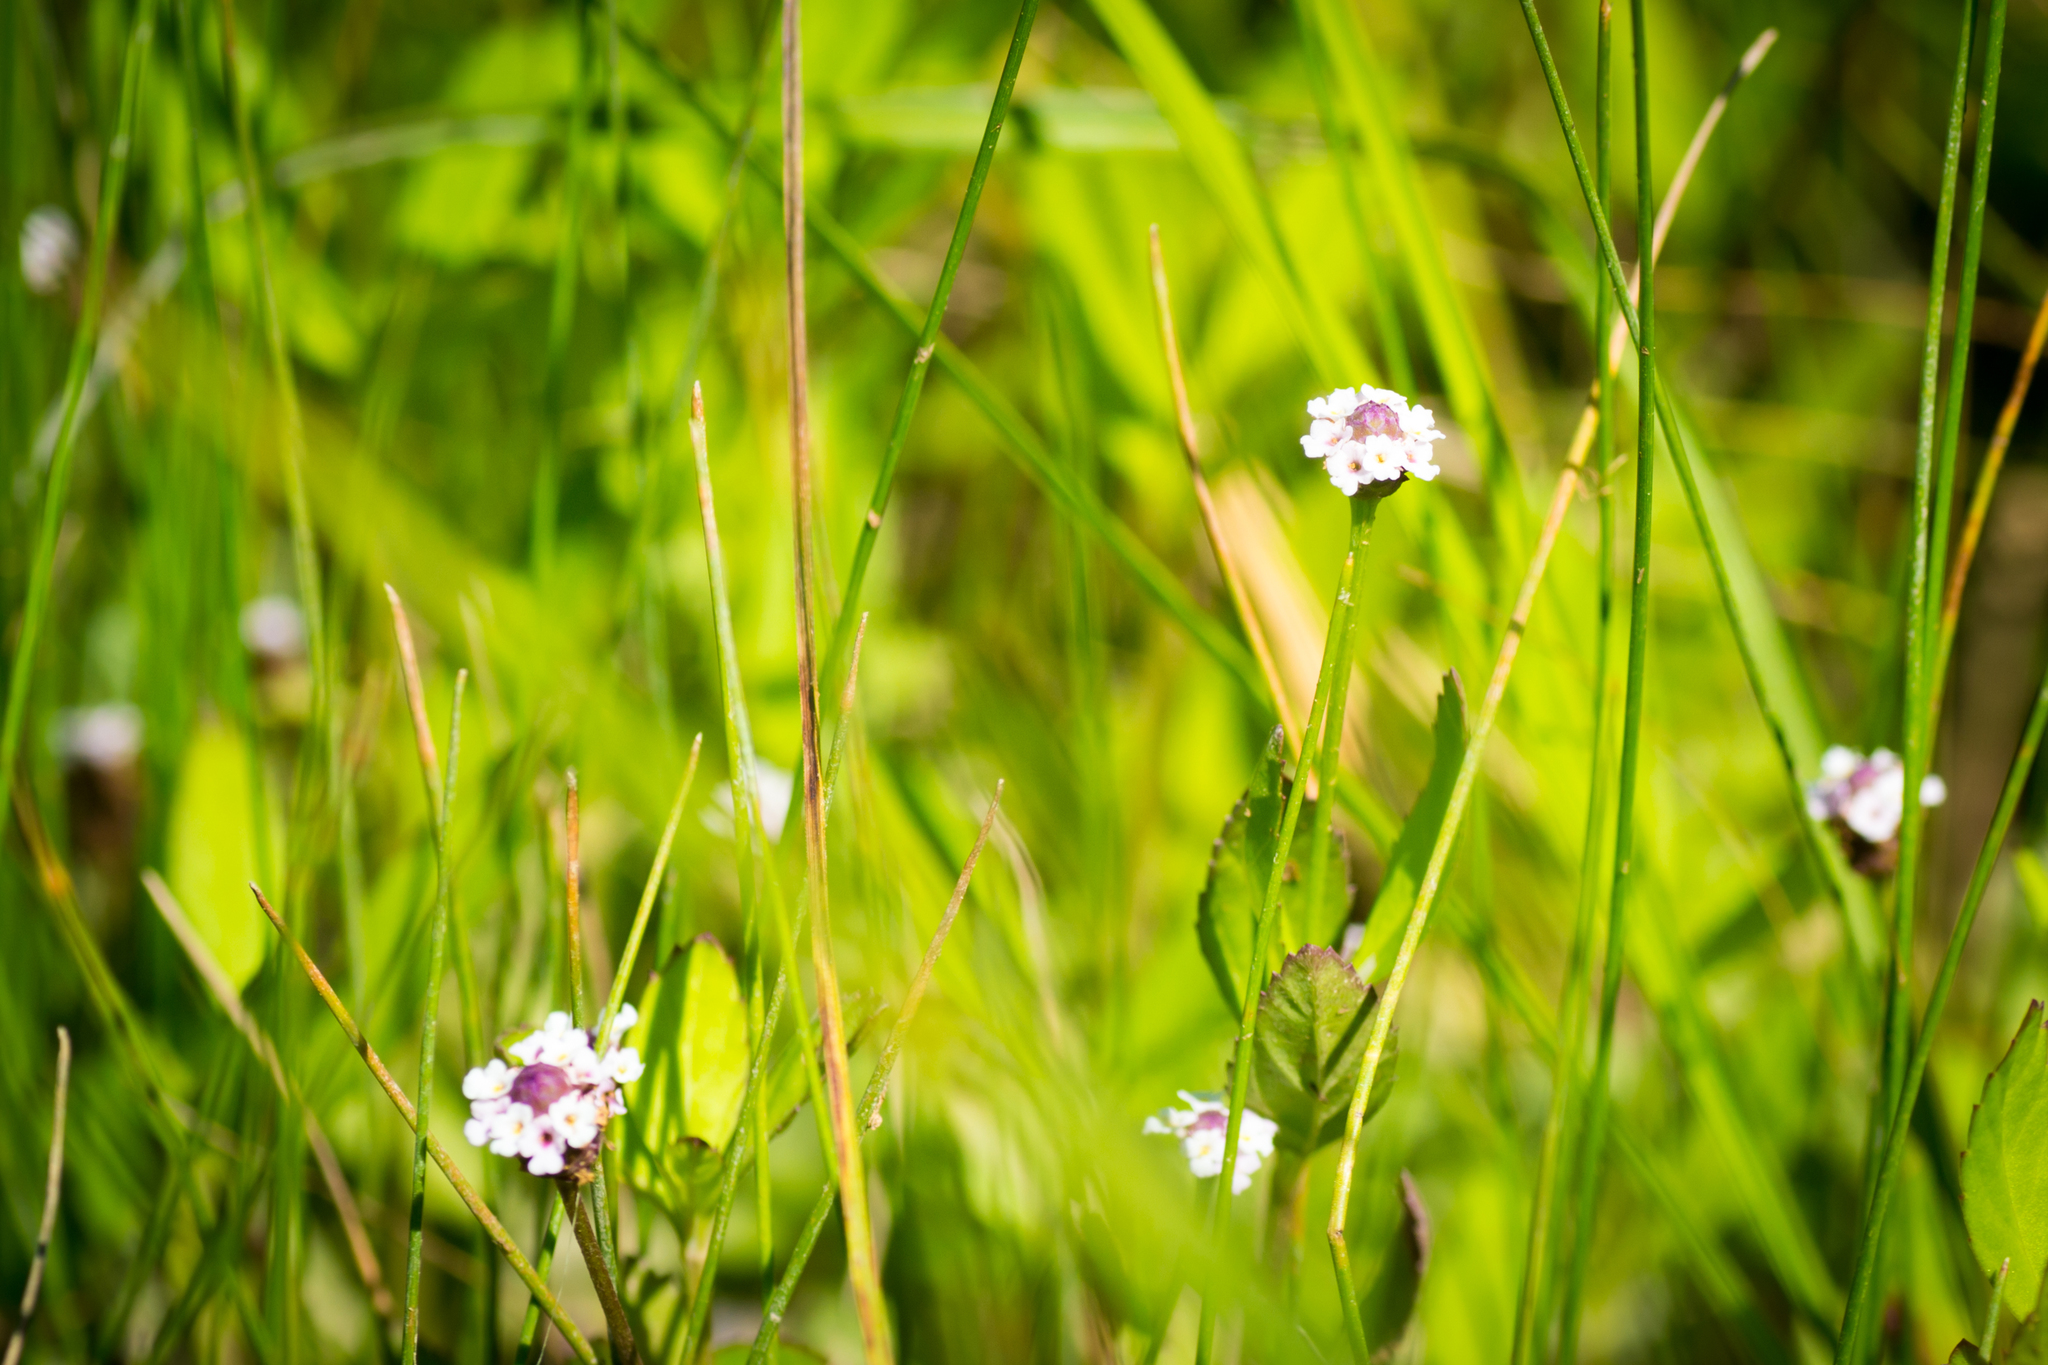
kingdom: Plantae
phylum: Tracheophyta
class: Magnoliopsida
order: Lamiales
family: Verbenaceae
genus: Phyla
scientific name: Phyla lanceolata
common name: Northern fogfruit
